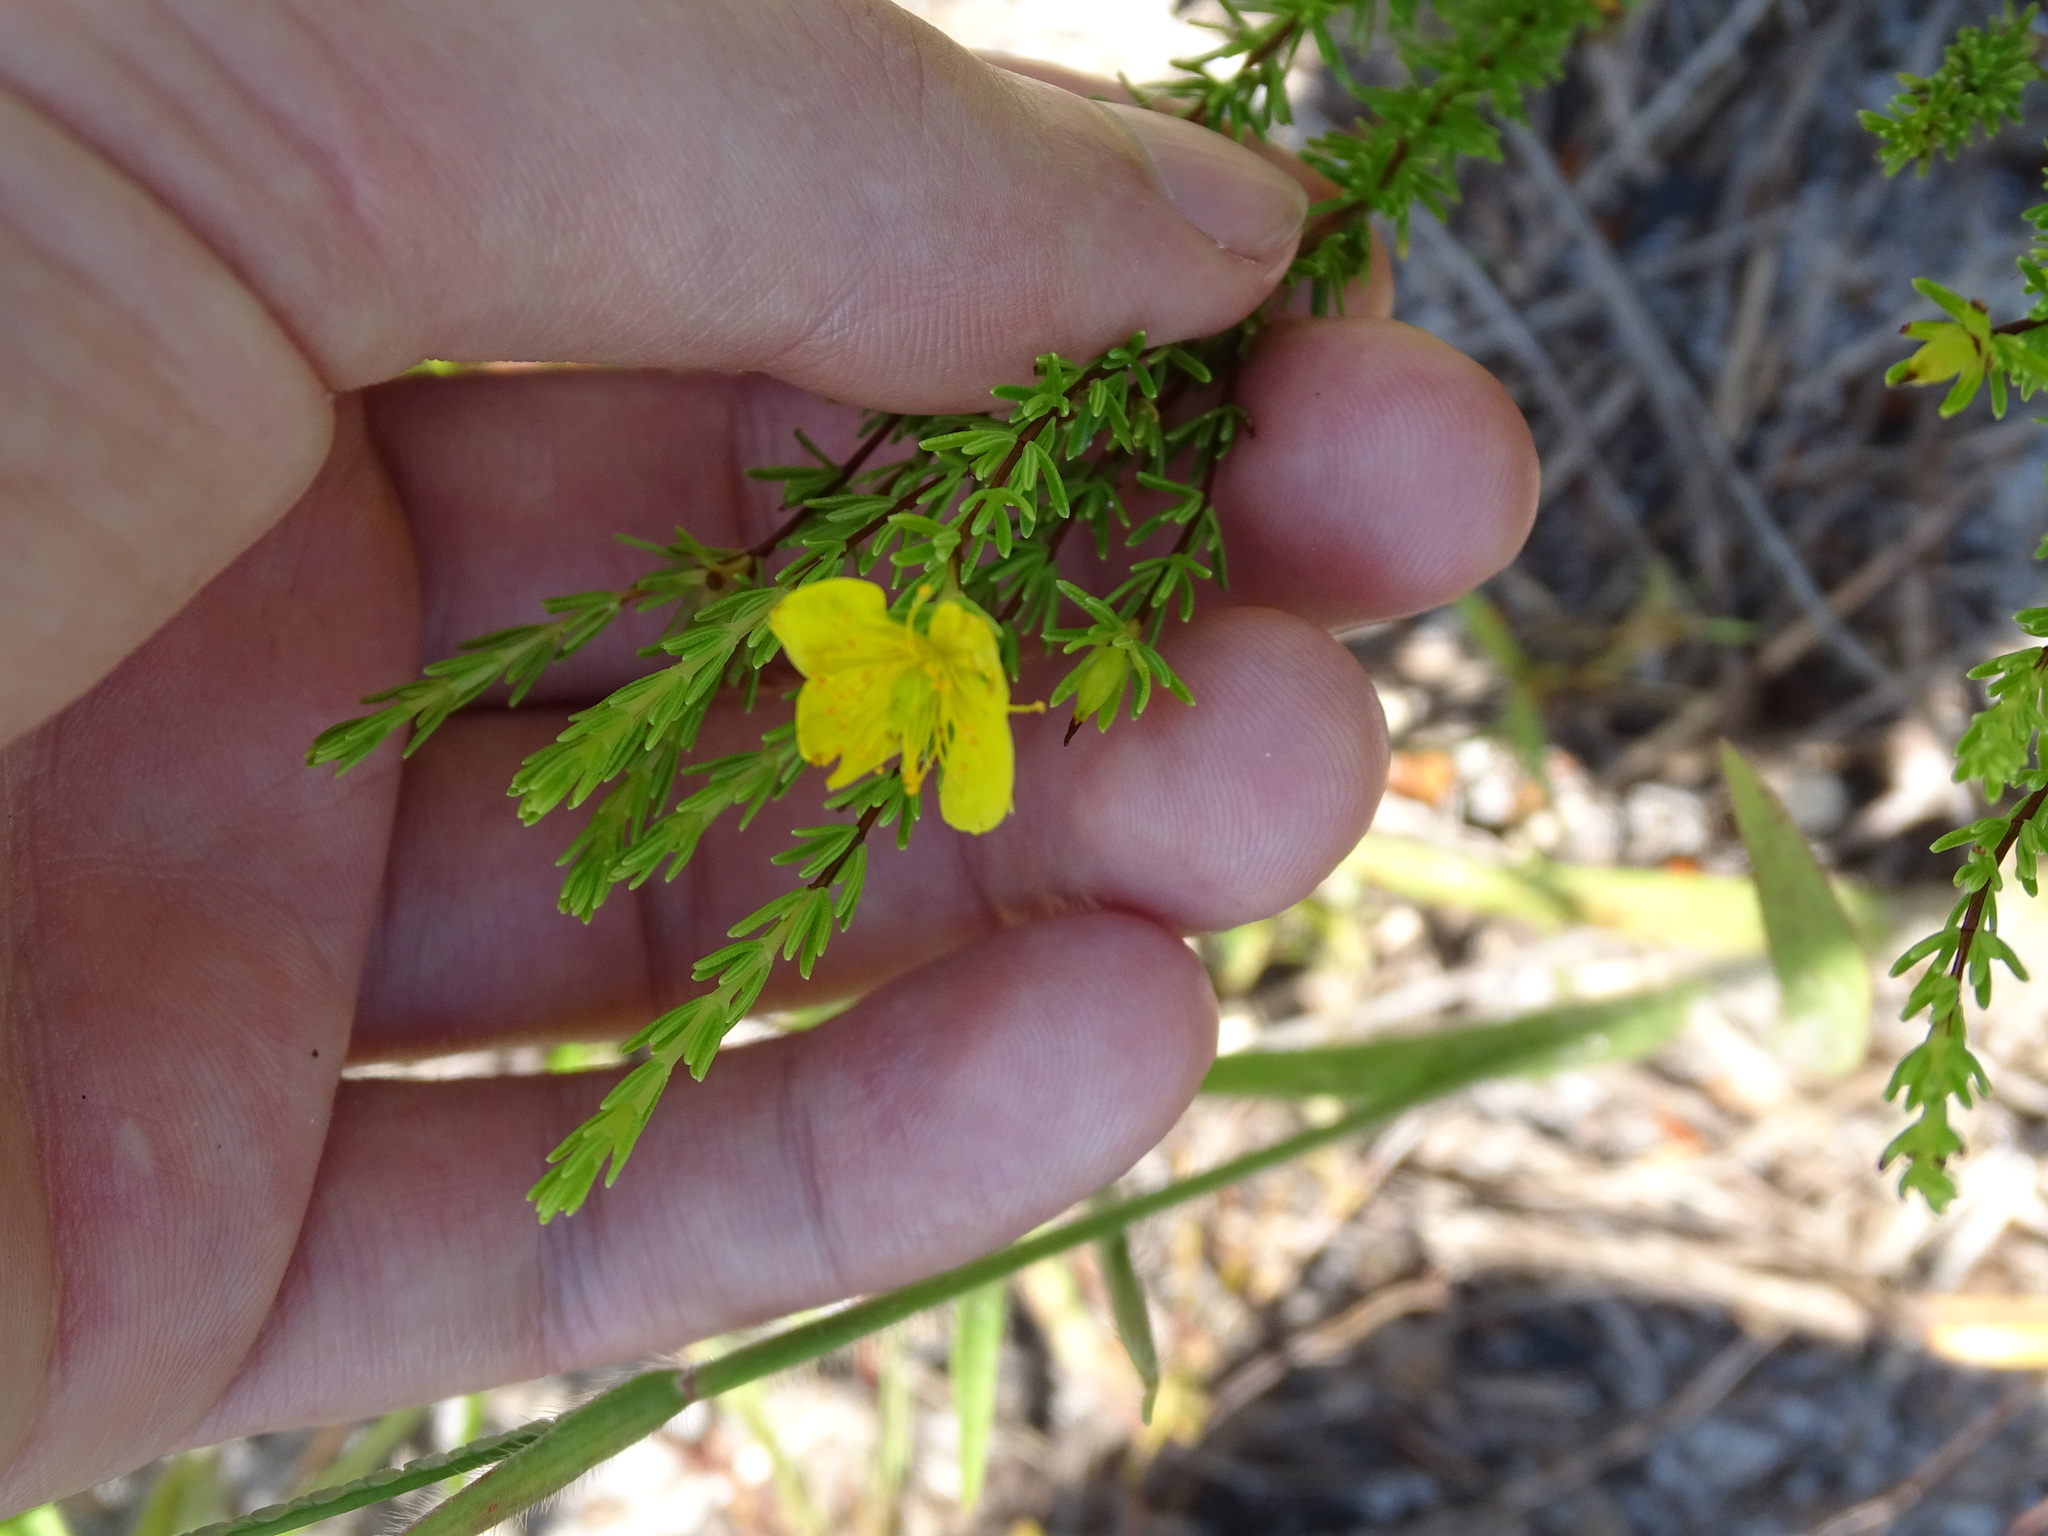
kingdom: Plantae
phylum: Tracheophyta
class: Magnoliopsida
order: Malpighiales
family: Hypericaceae
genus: Hypericum
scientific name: Hypericum tenuifolium
